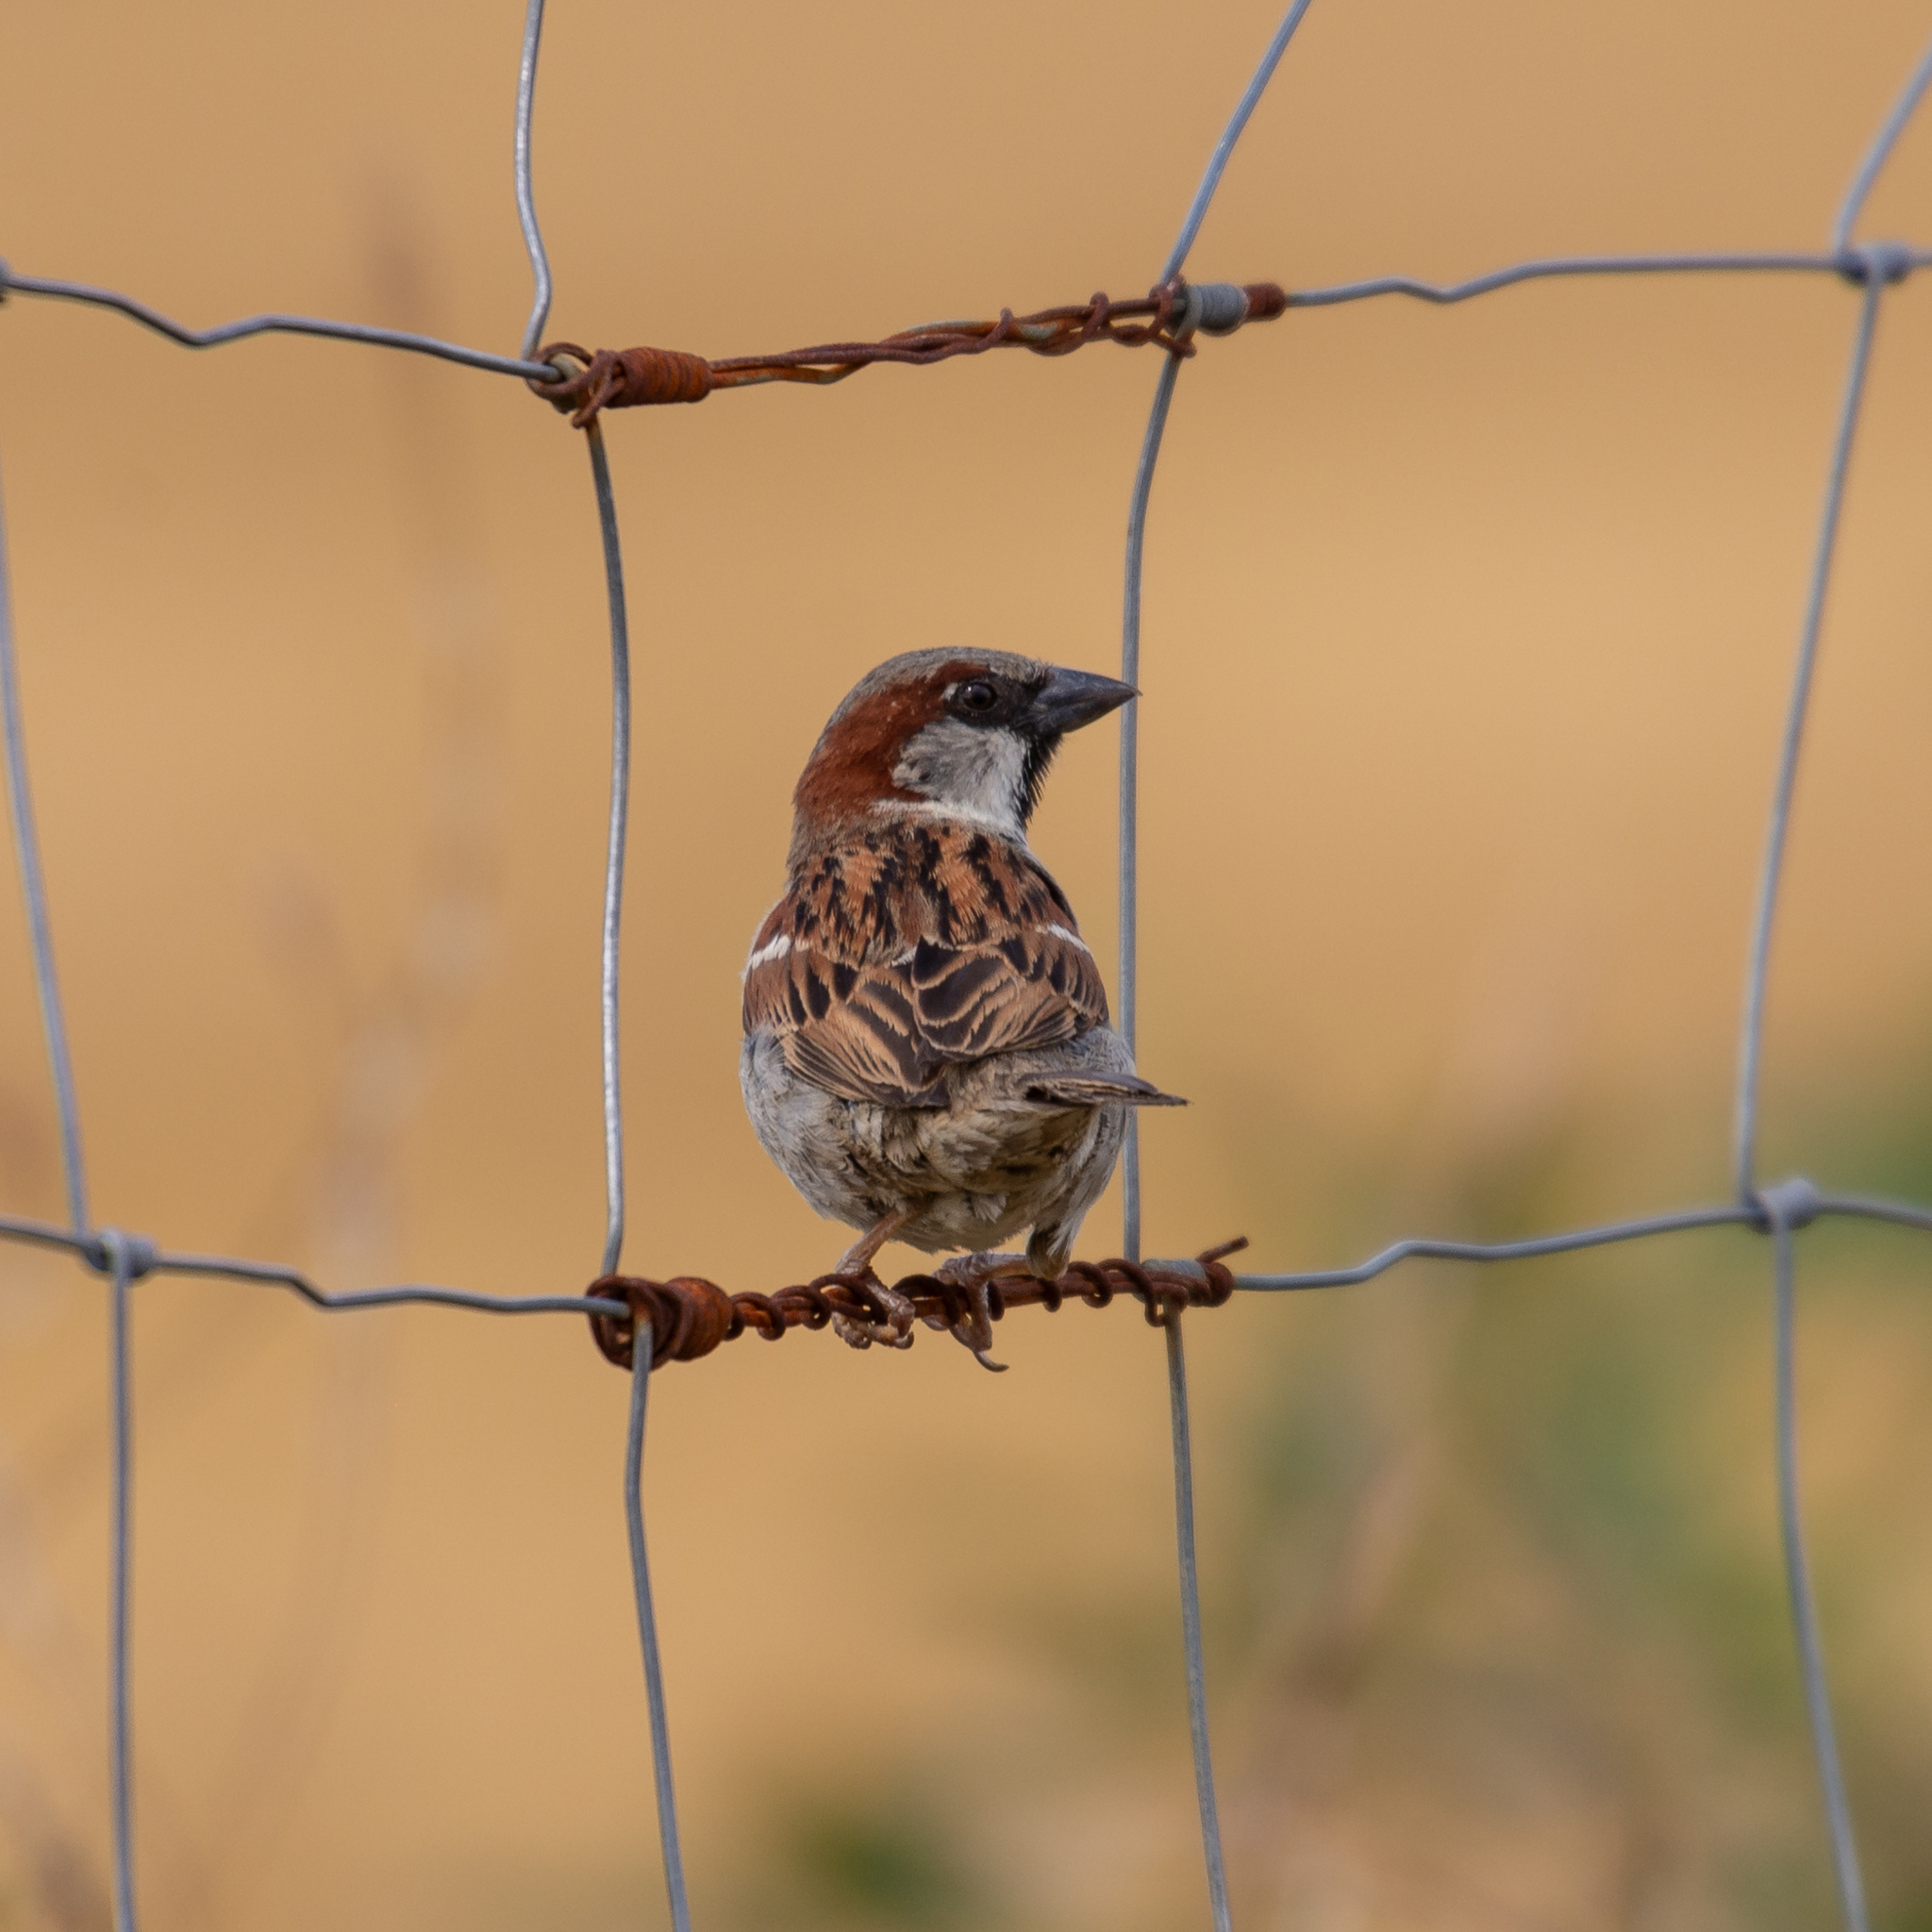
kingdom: Animalia
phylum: Chordata
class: Aves
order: Passeriformes
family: Passeridae
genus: Passer
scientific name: Passer domesticus
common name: House sparrow
